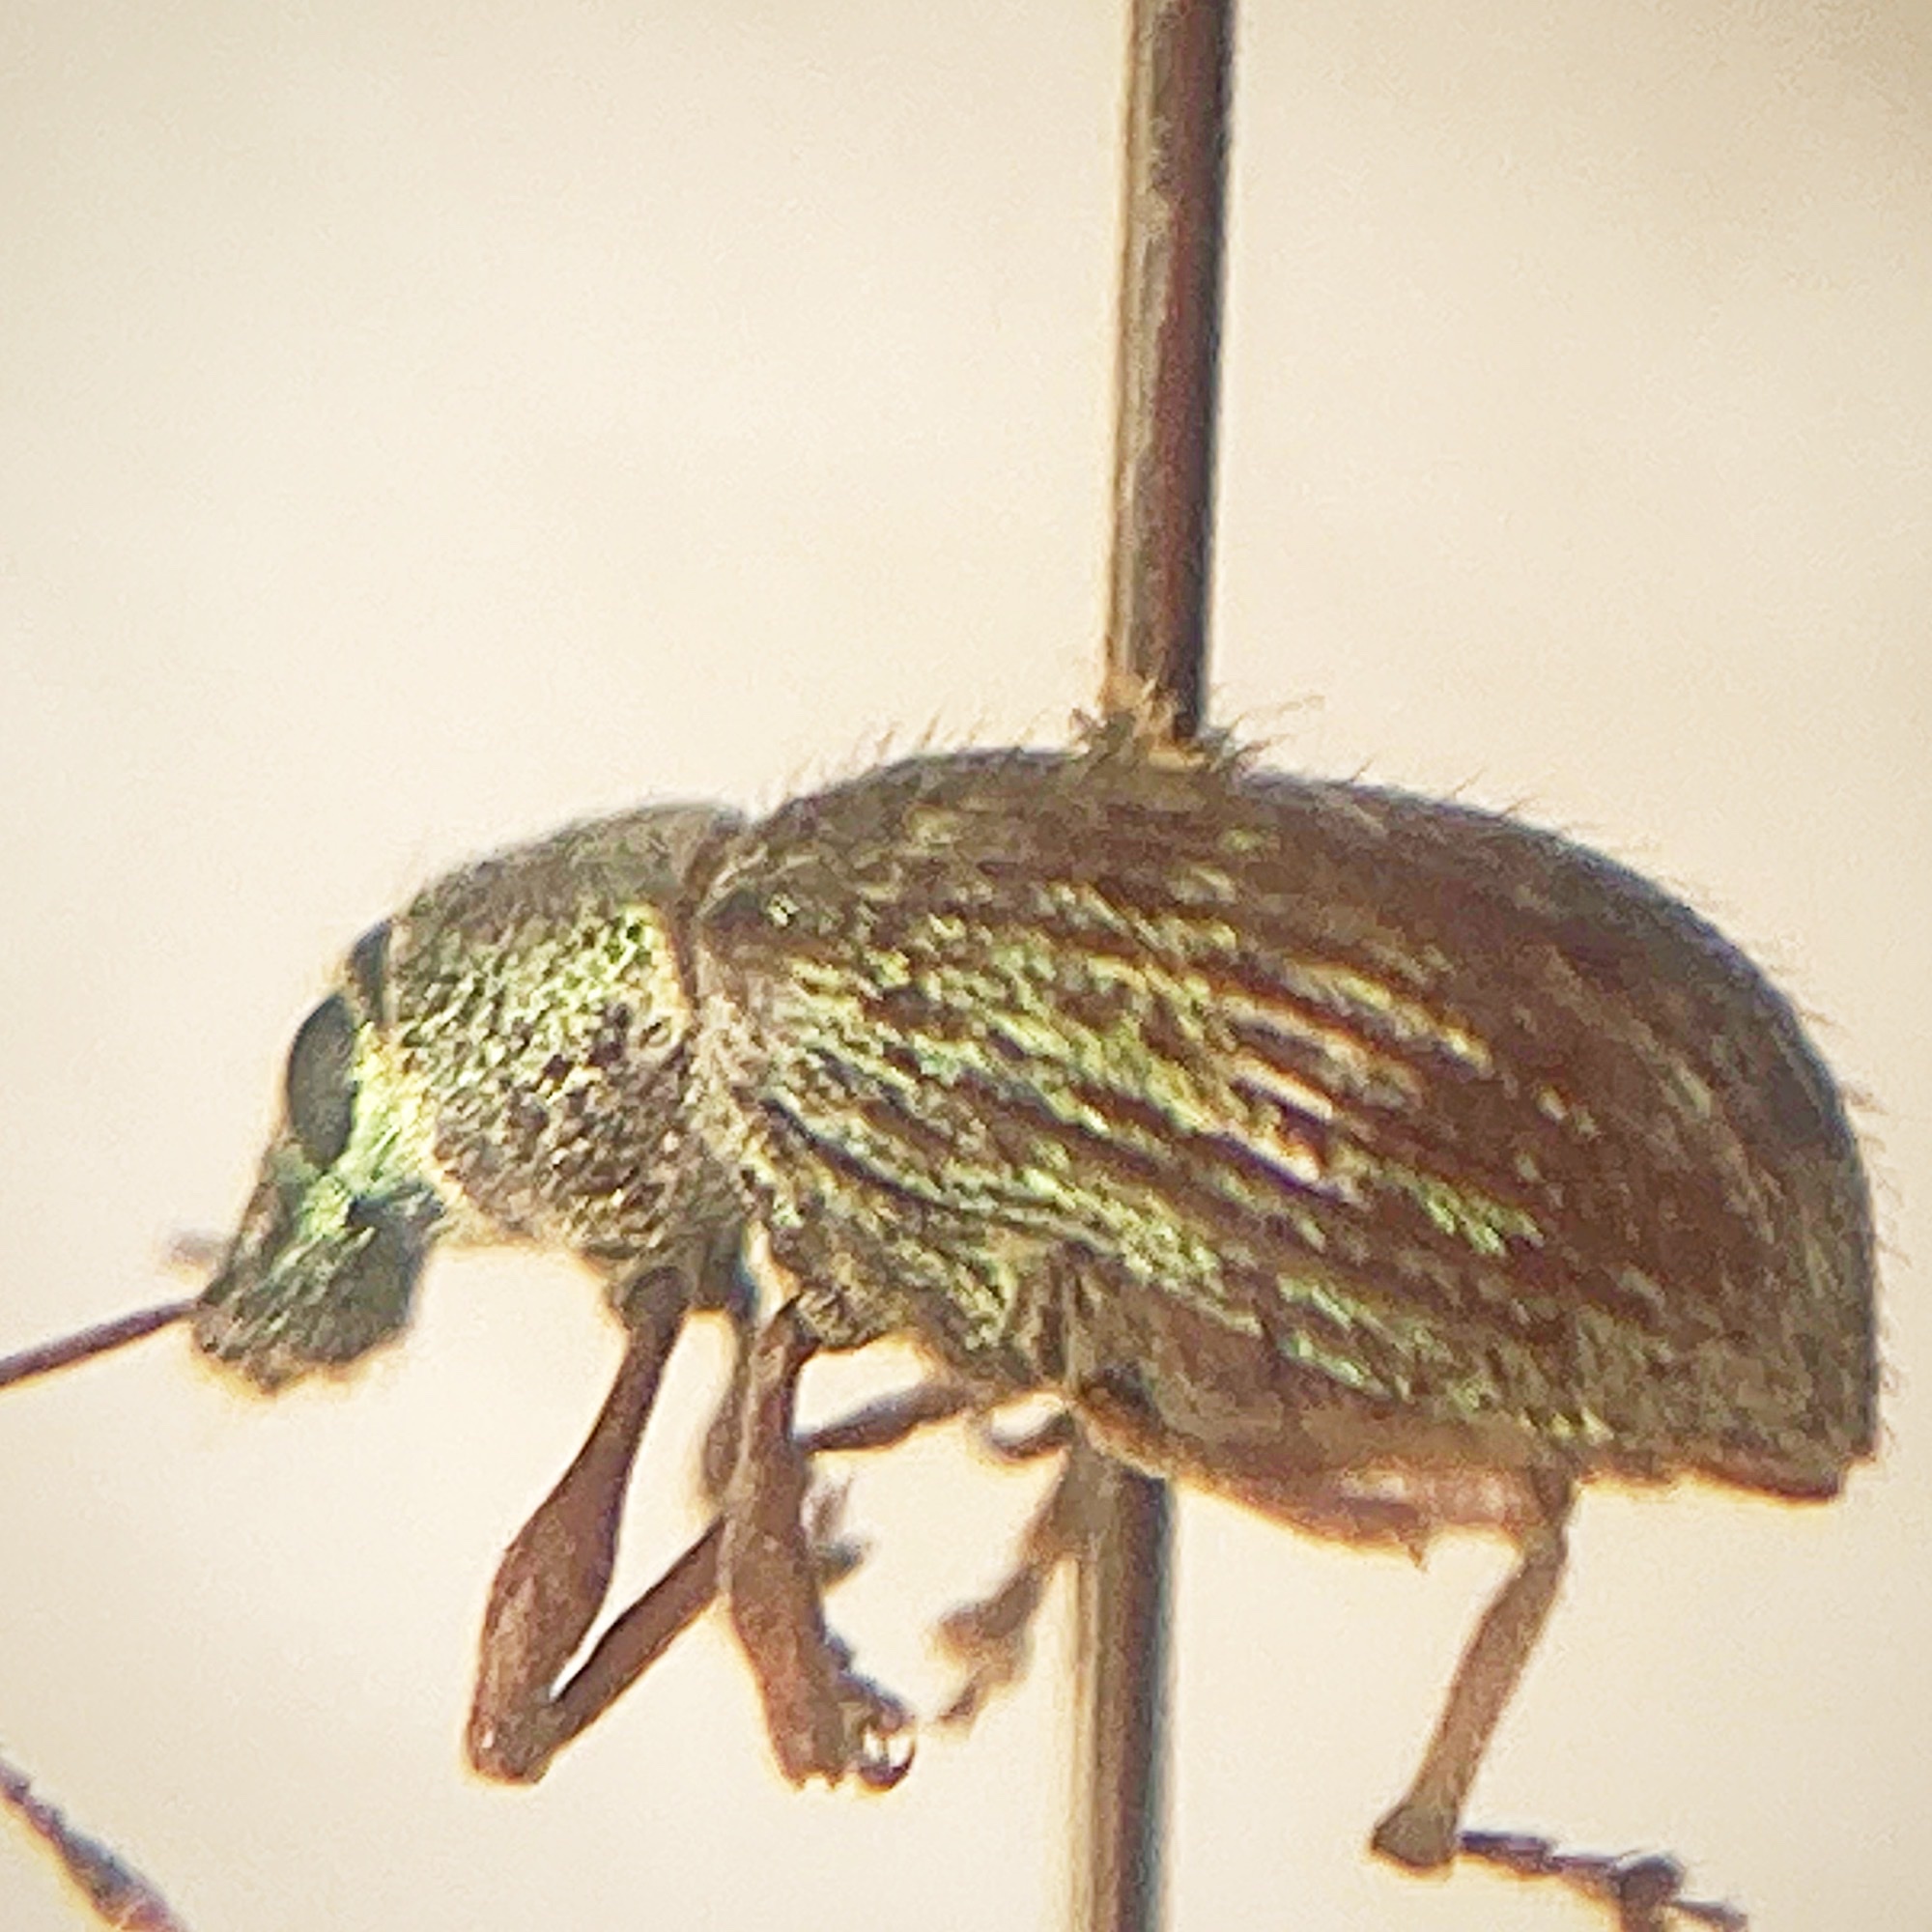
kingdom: Animalia
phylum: Arthropoda
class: Insecta
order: Coleoptera
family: Curculionidae
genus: Cyrtepistomus
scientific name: Cyrtepistomus castaneus
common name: Weevil
